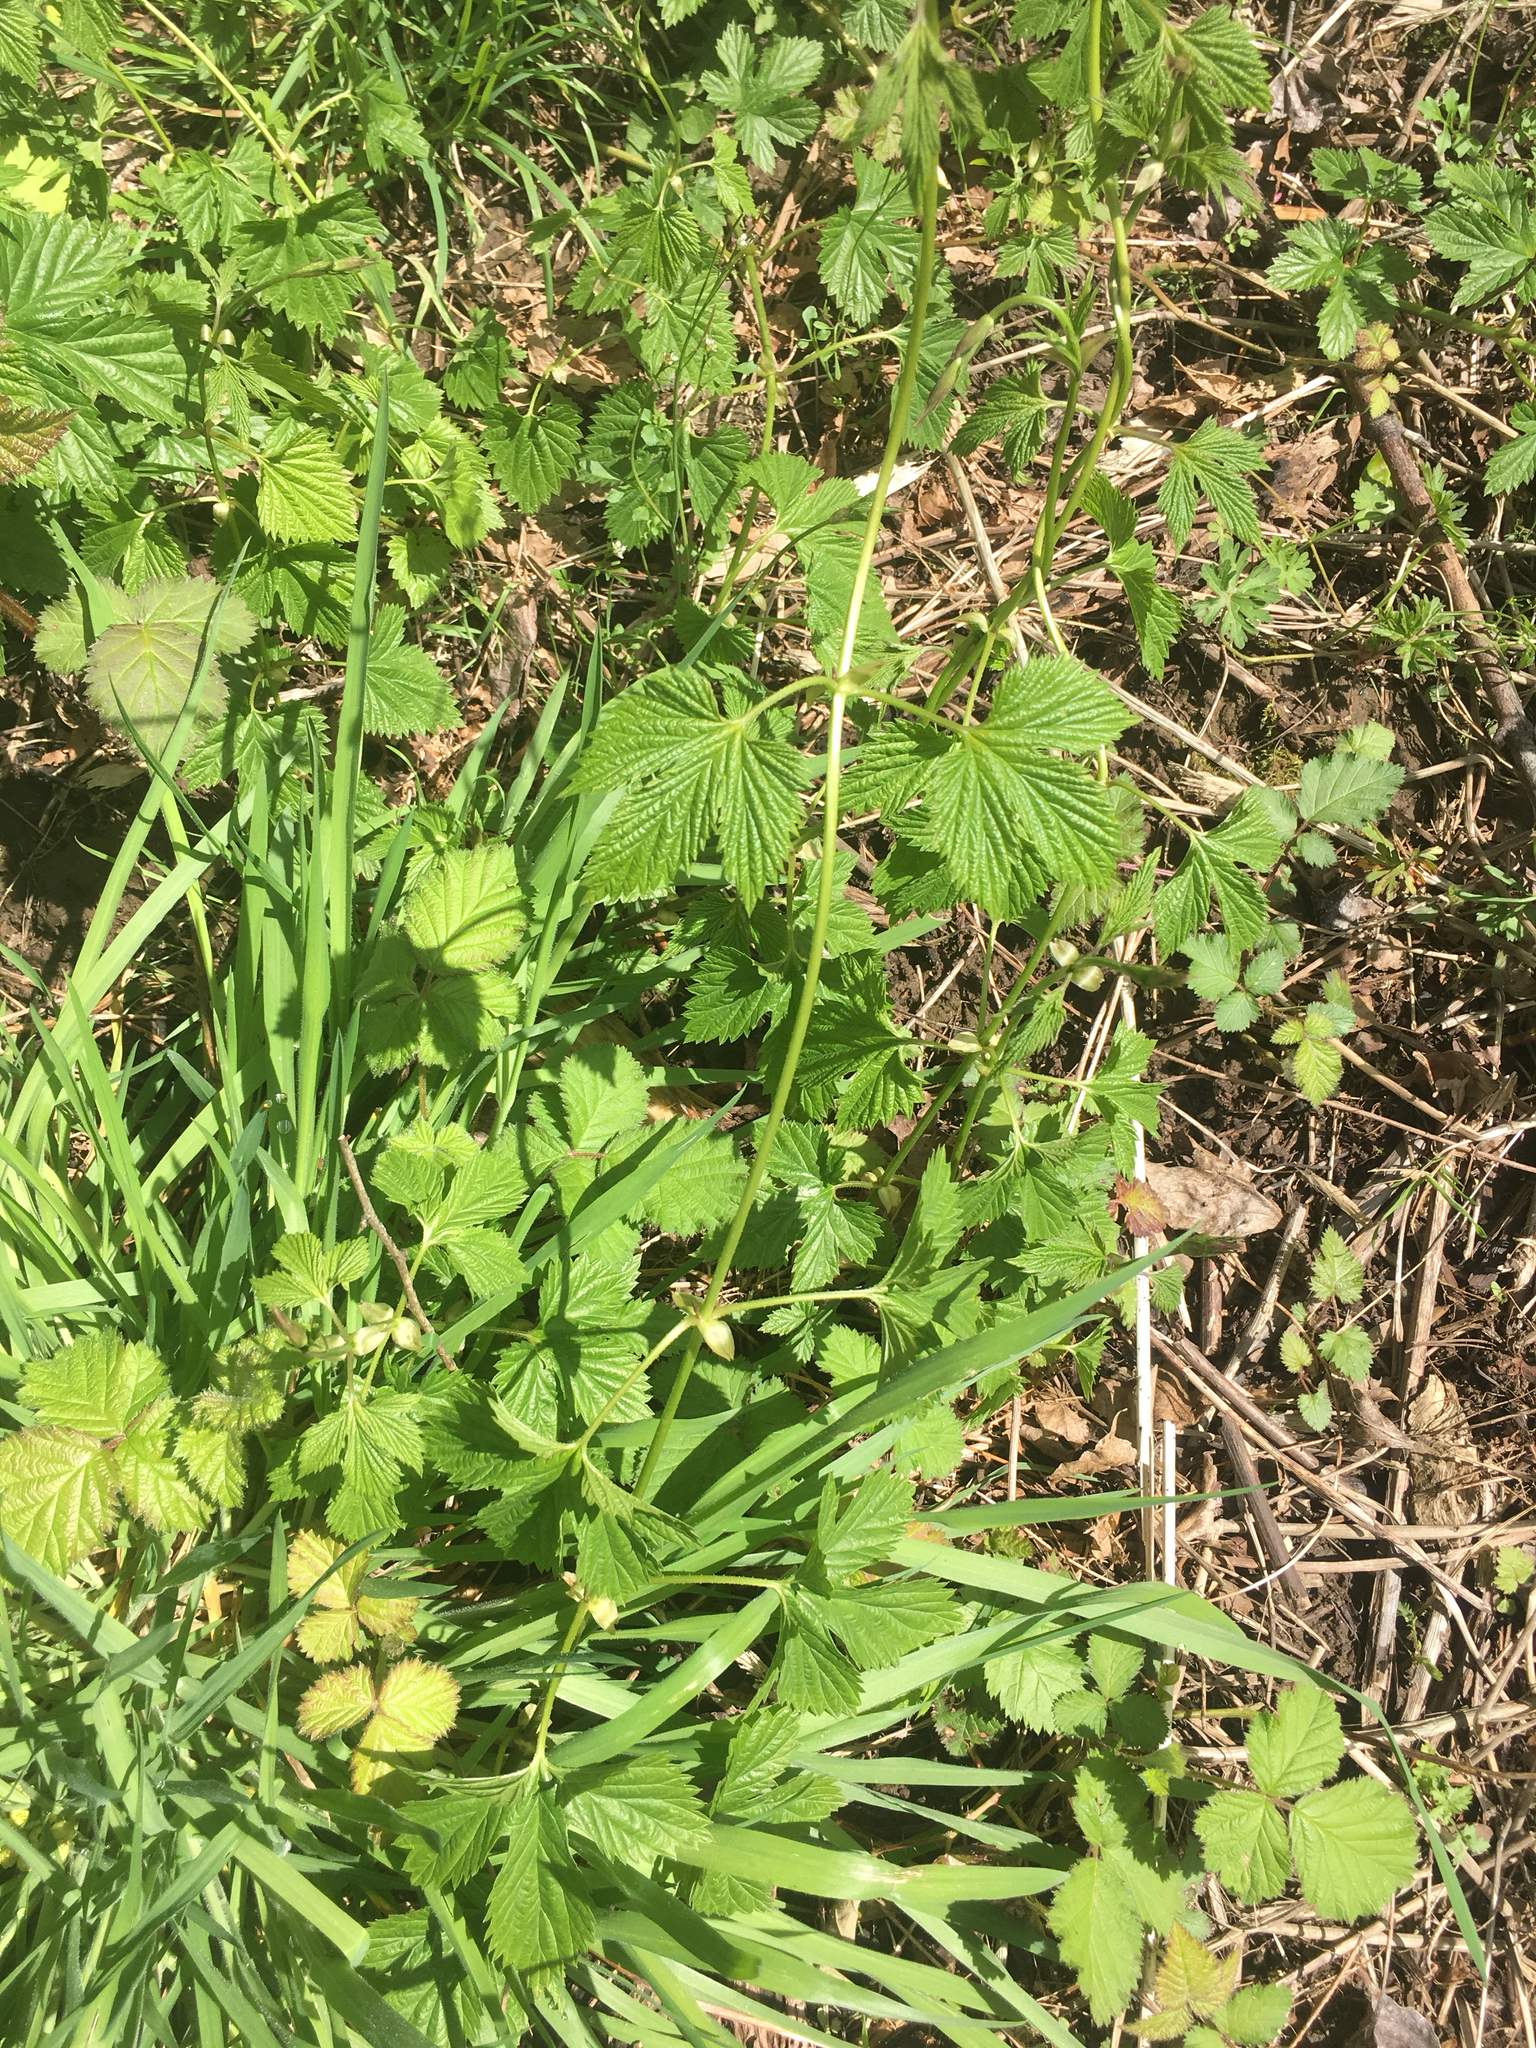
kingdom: Plantae
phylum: Tracheophyta
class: Magnoliopsida
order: Rosales
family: Cannabaceae
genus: Humulus
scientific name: Humulus lupulus
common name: Hop
